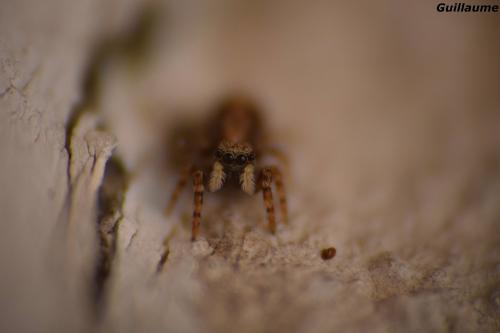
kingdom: Animalia
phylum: Arthropoda
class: Arachnida
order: Araneae
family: Salticidae
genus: Pseudeuophrys
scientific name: Pseudeuophrys lanigera
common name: Jumping spider
